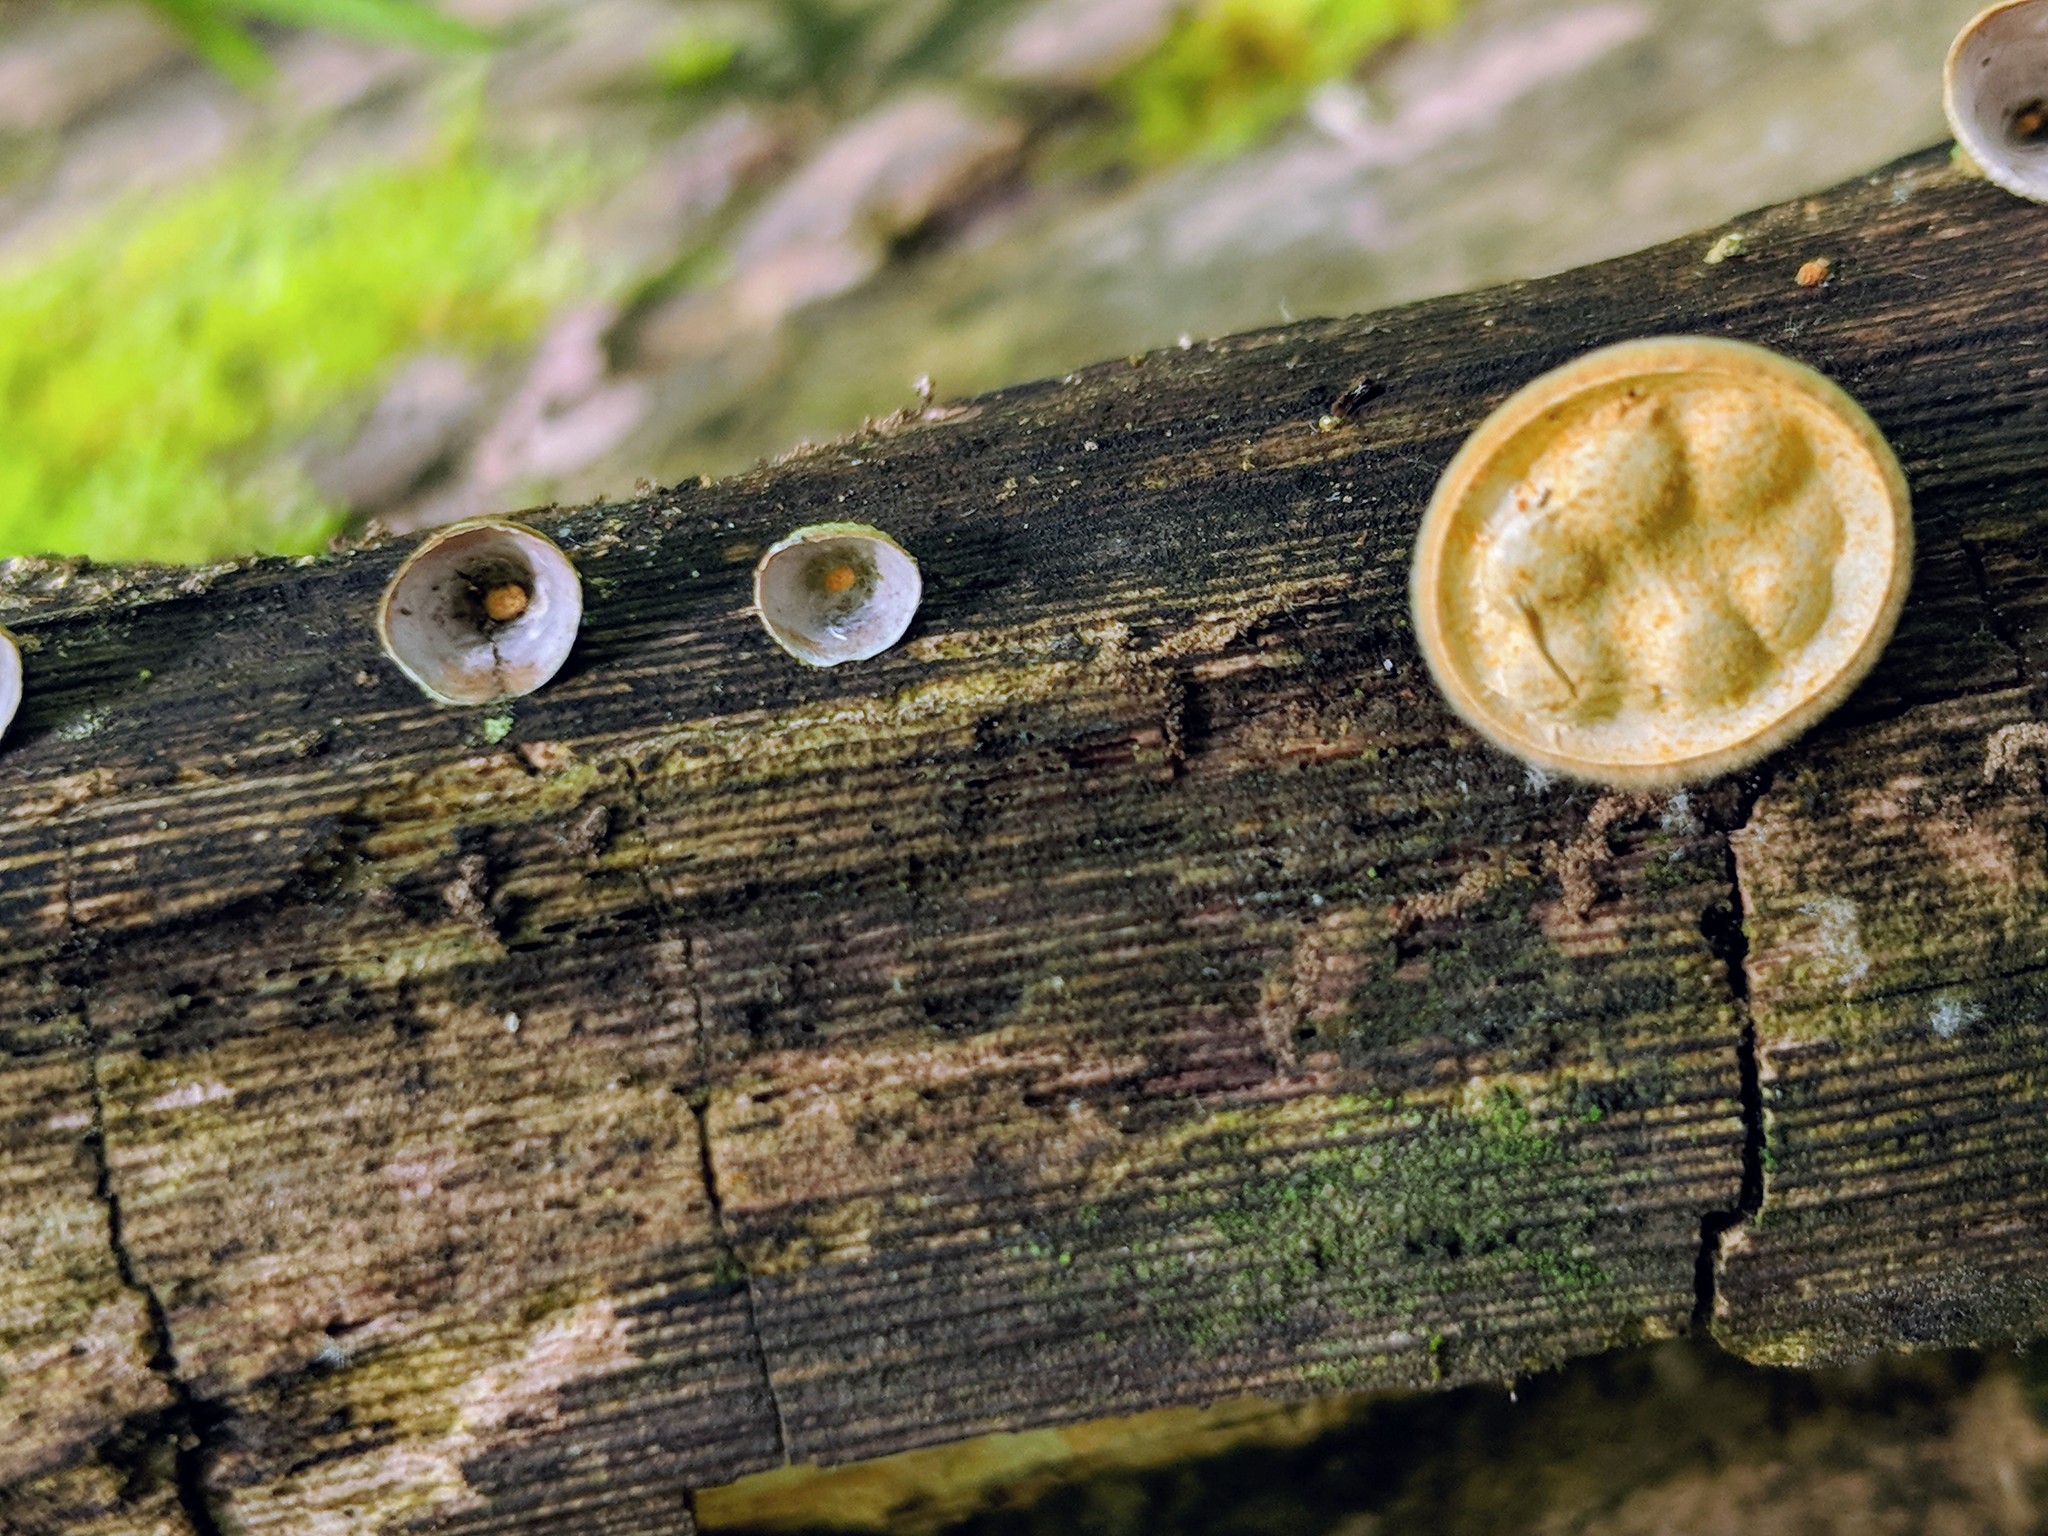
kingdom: Fungi
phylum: Basidiomycota
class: Agaricomycetes
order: Agaricales
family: Nidulariaceae
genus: Crucibulum
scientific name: Crucibulum laeve
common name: Common bird's nest
